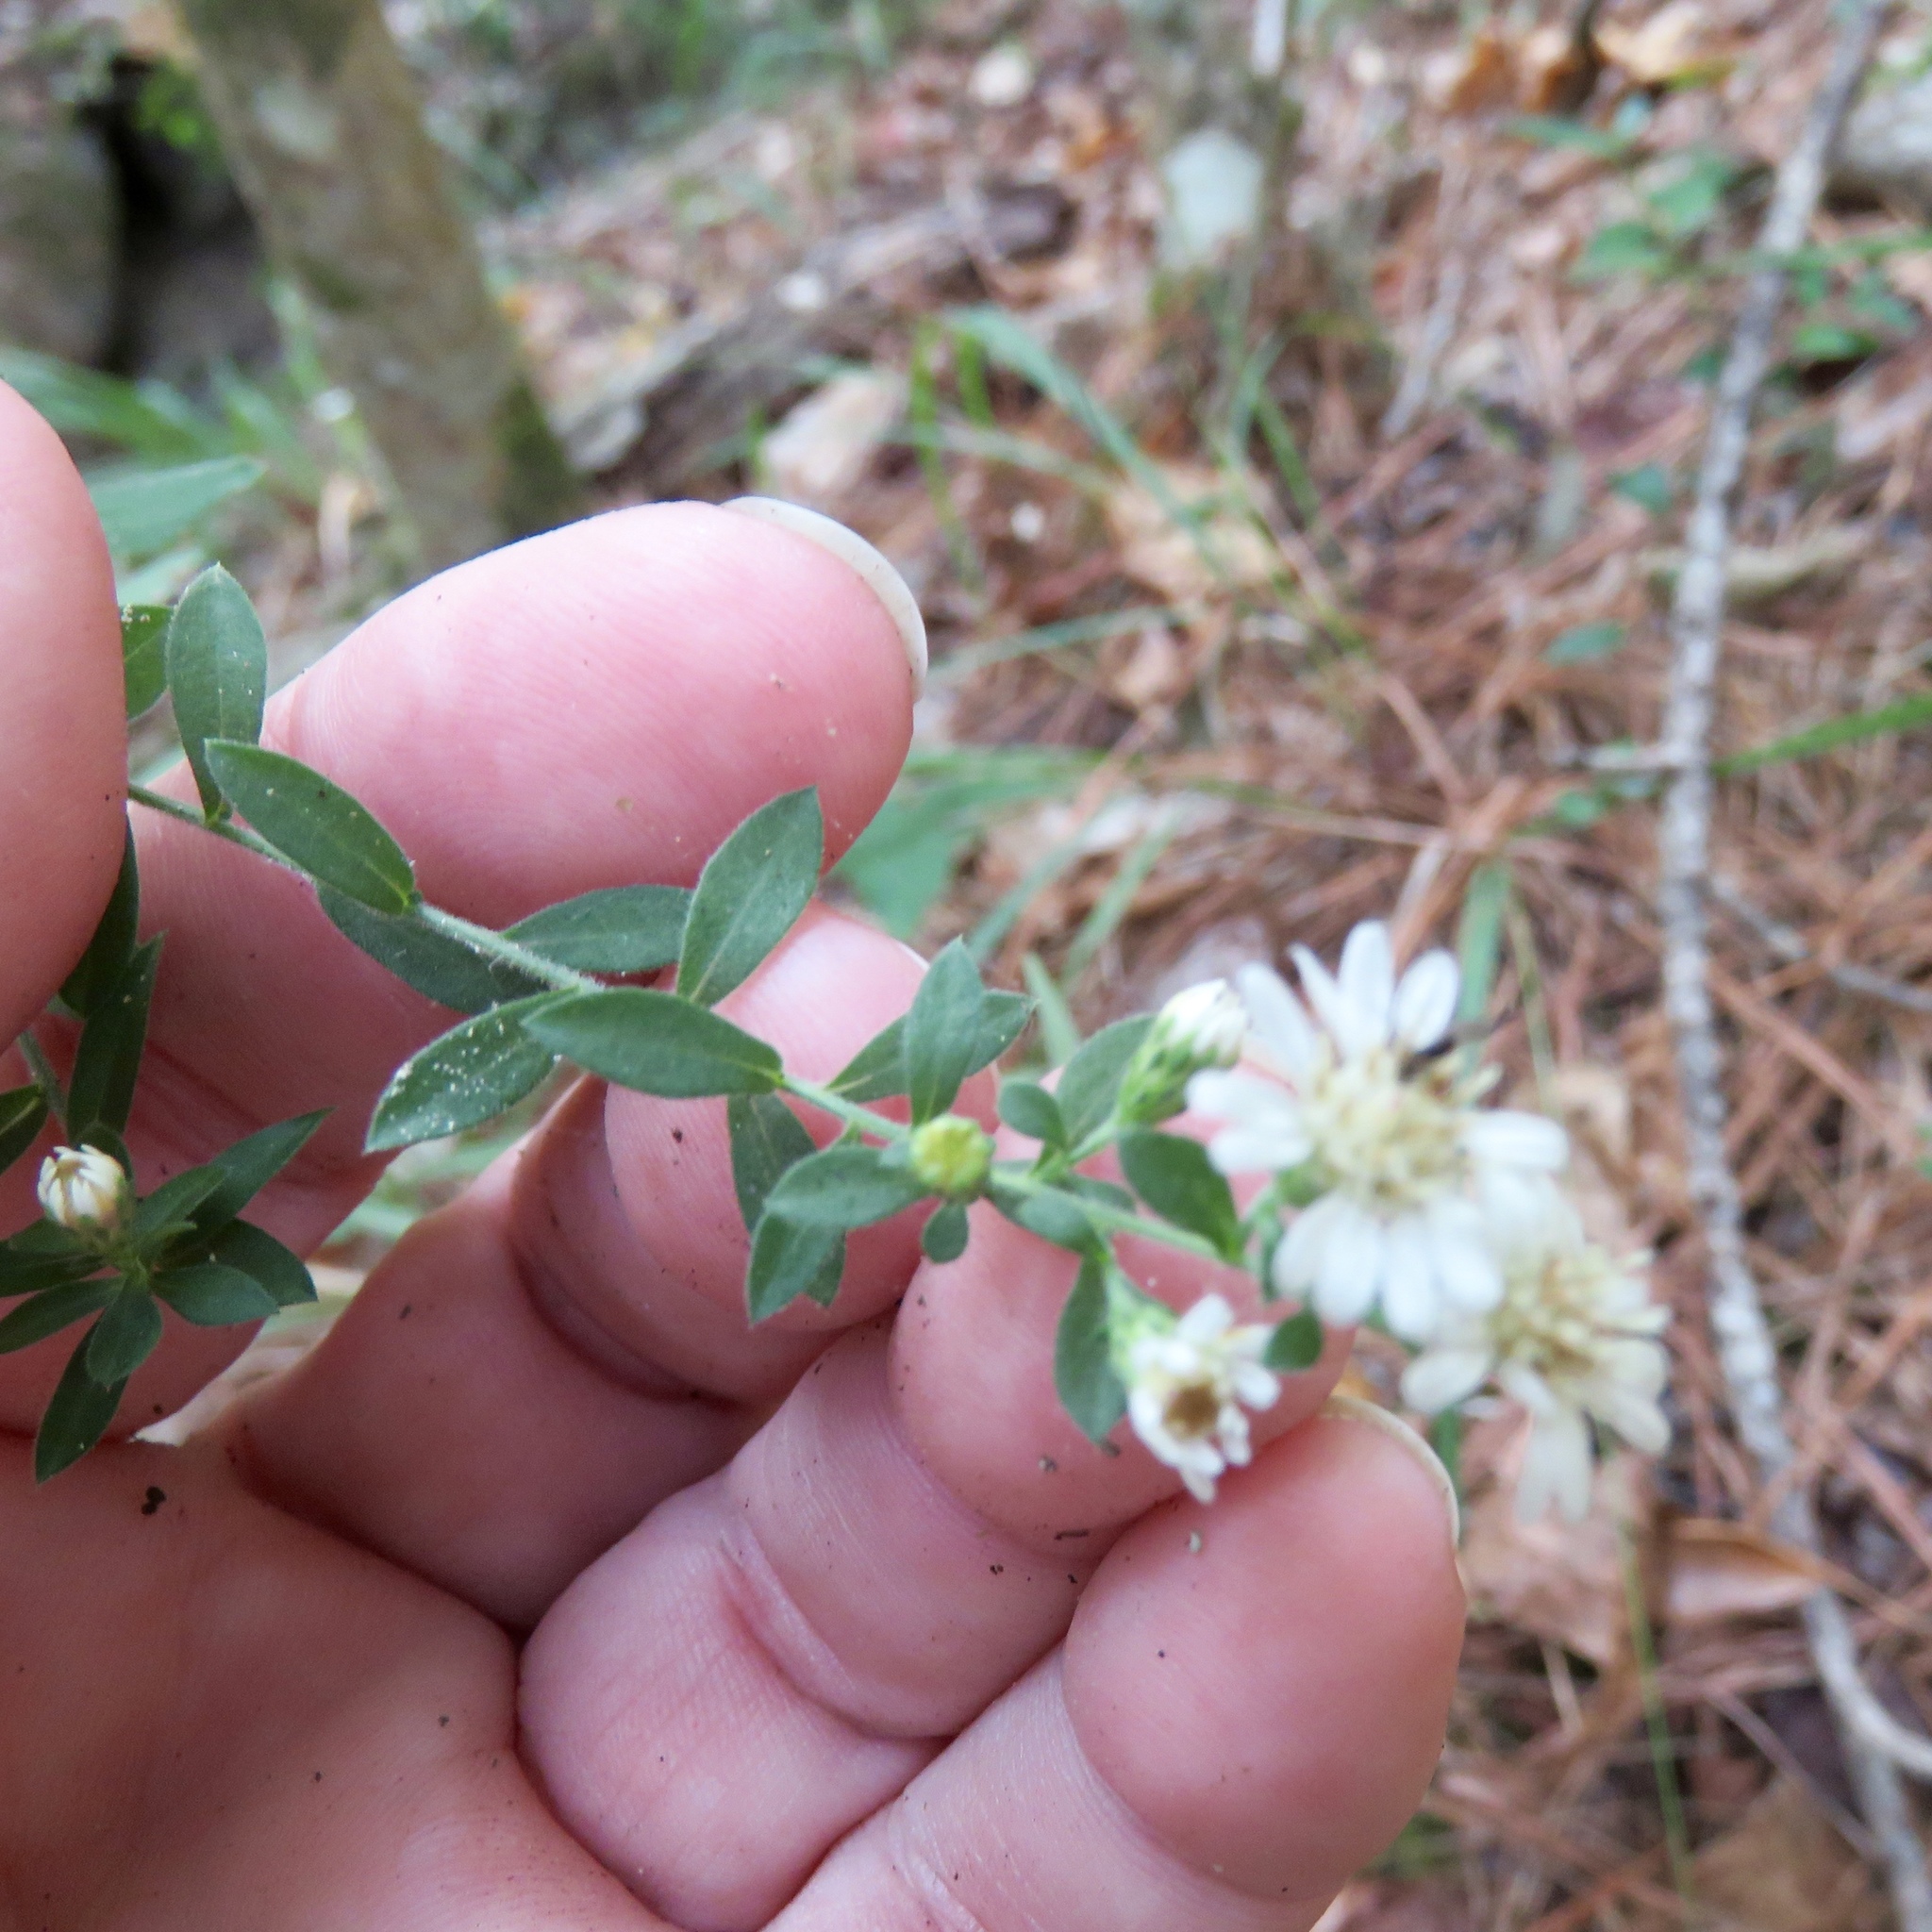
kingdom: Plantae
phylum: Tracheophyta
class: Magnoliopsida
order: Asterales
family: Asteraceae
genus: Symphyotrichum
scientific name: Symphyotrichum lateriflorum
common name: Calico aster
